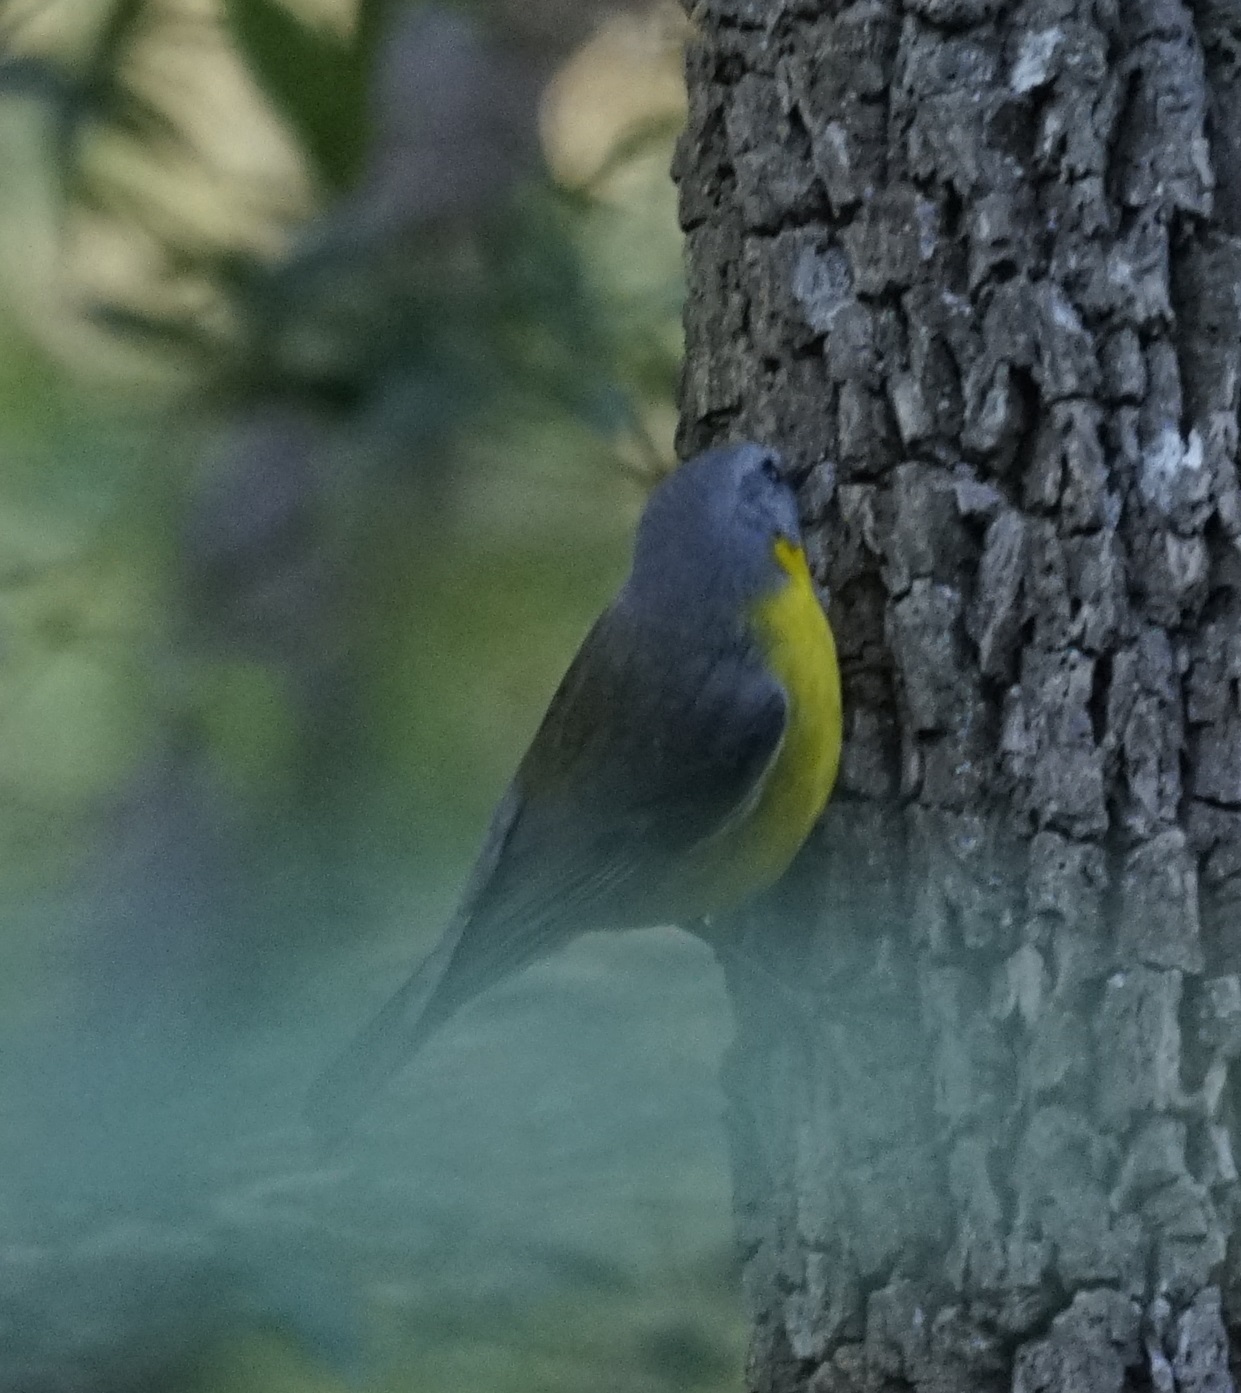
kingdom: Animalia
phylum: Chordata
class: Aves
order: Passeriformes
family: Petroicidae
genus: Eopsaltria
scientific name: Eopsaltria australis
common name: Eastern yellow robin
